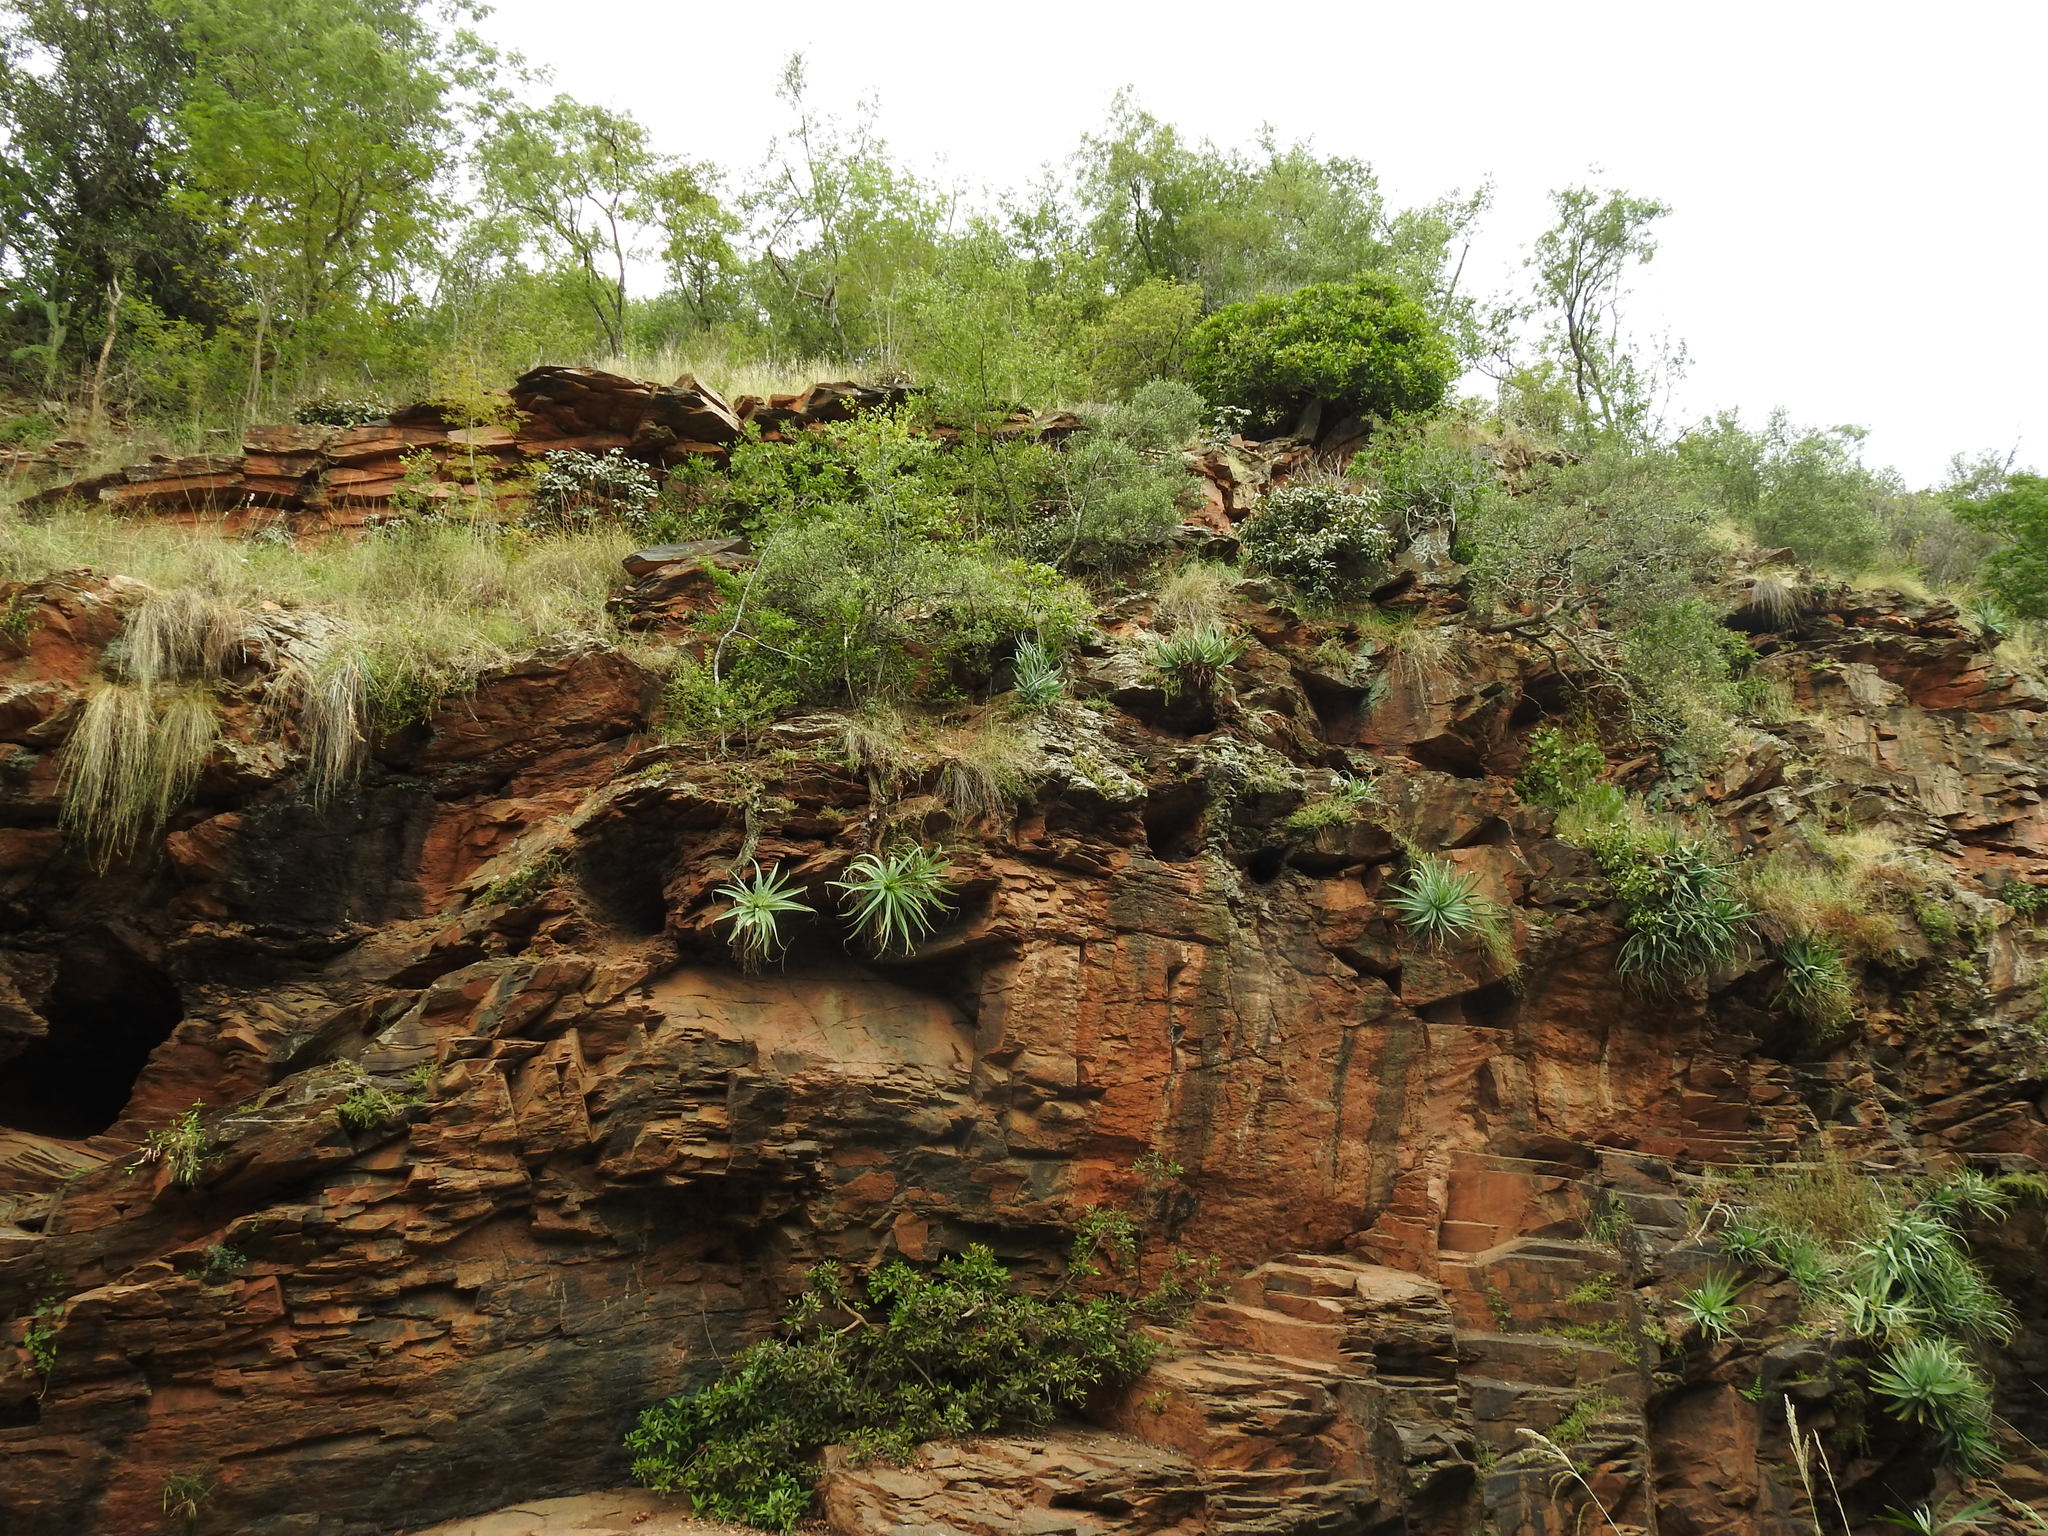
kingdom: Plantae
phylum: Tracheophyta
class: Liliopsida
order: Asparagales
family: Asphodelaceae
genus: Aloe
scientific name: Aloe mutabilis
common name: Blue krantz aloe
